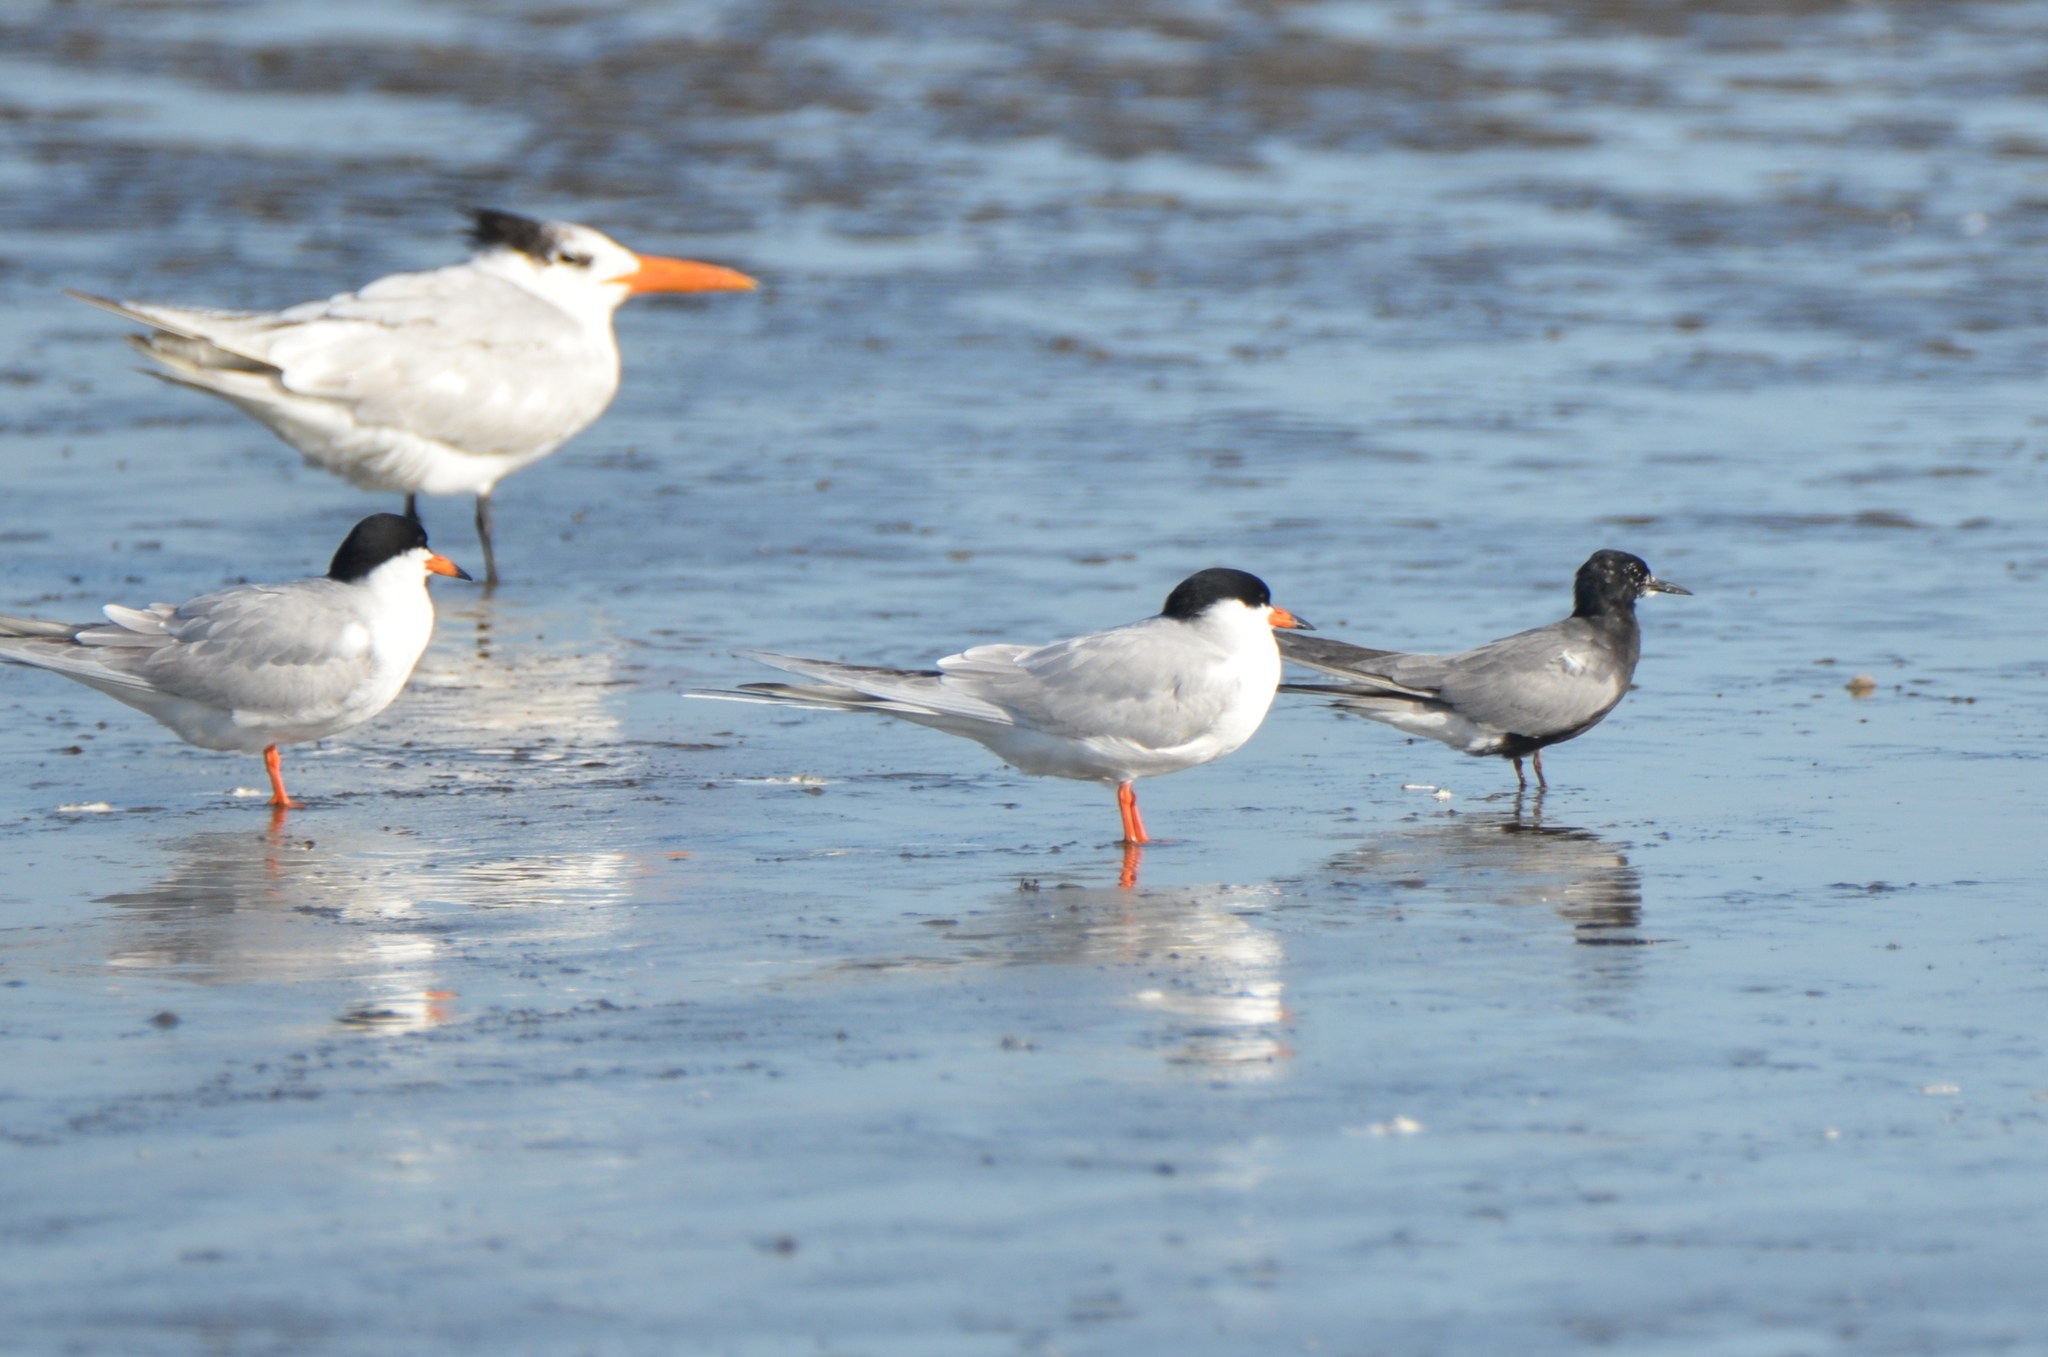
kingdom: Animalia
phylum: Chordata
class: Aves
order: Charadriiformes
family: Laridae
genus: Chlidonias
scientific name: Chlidonias niger
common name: Black tern
